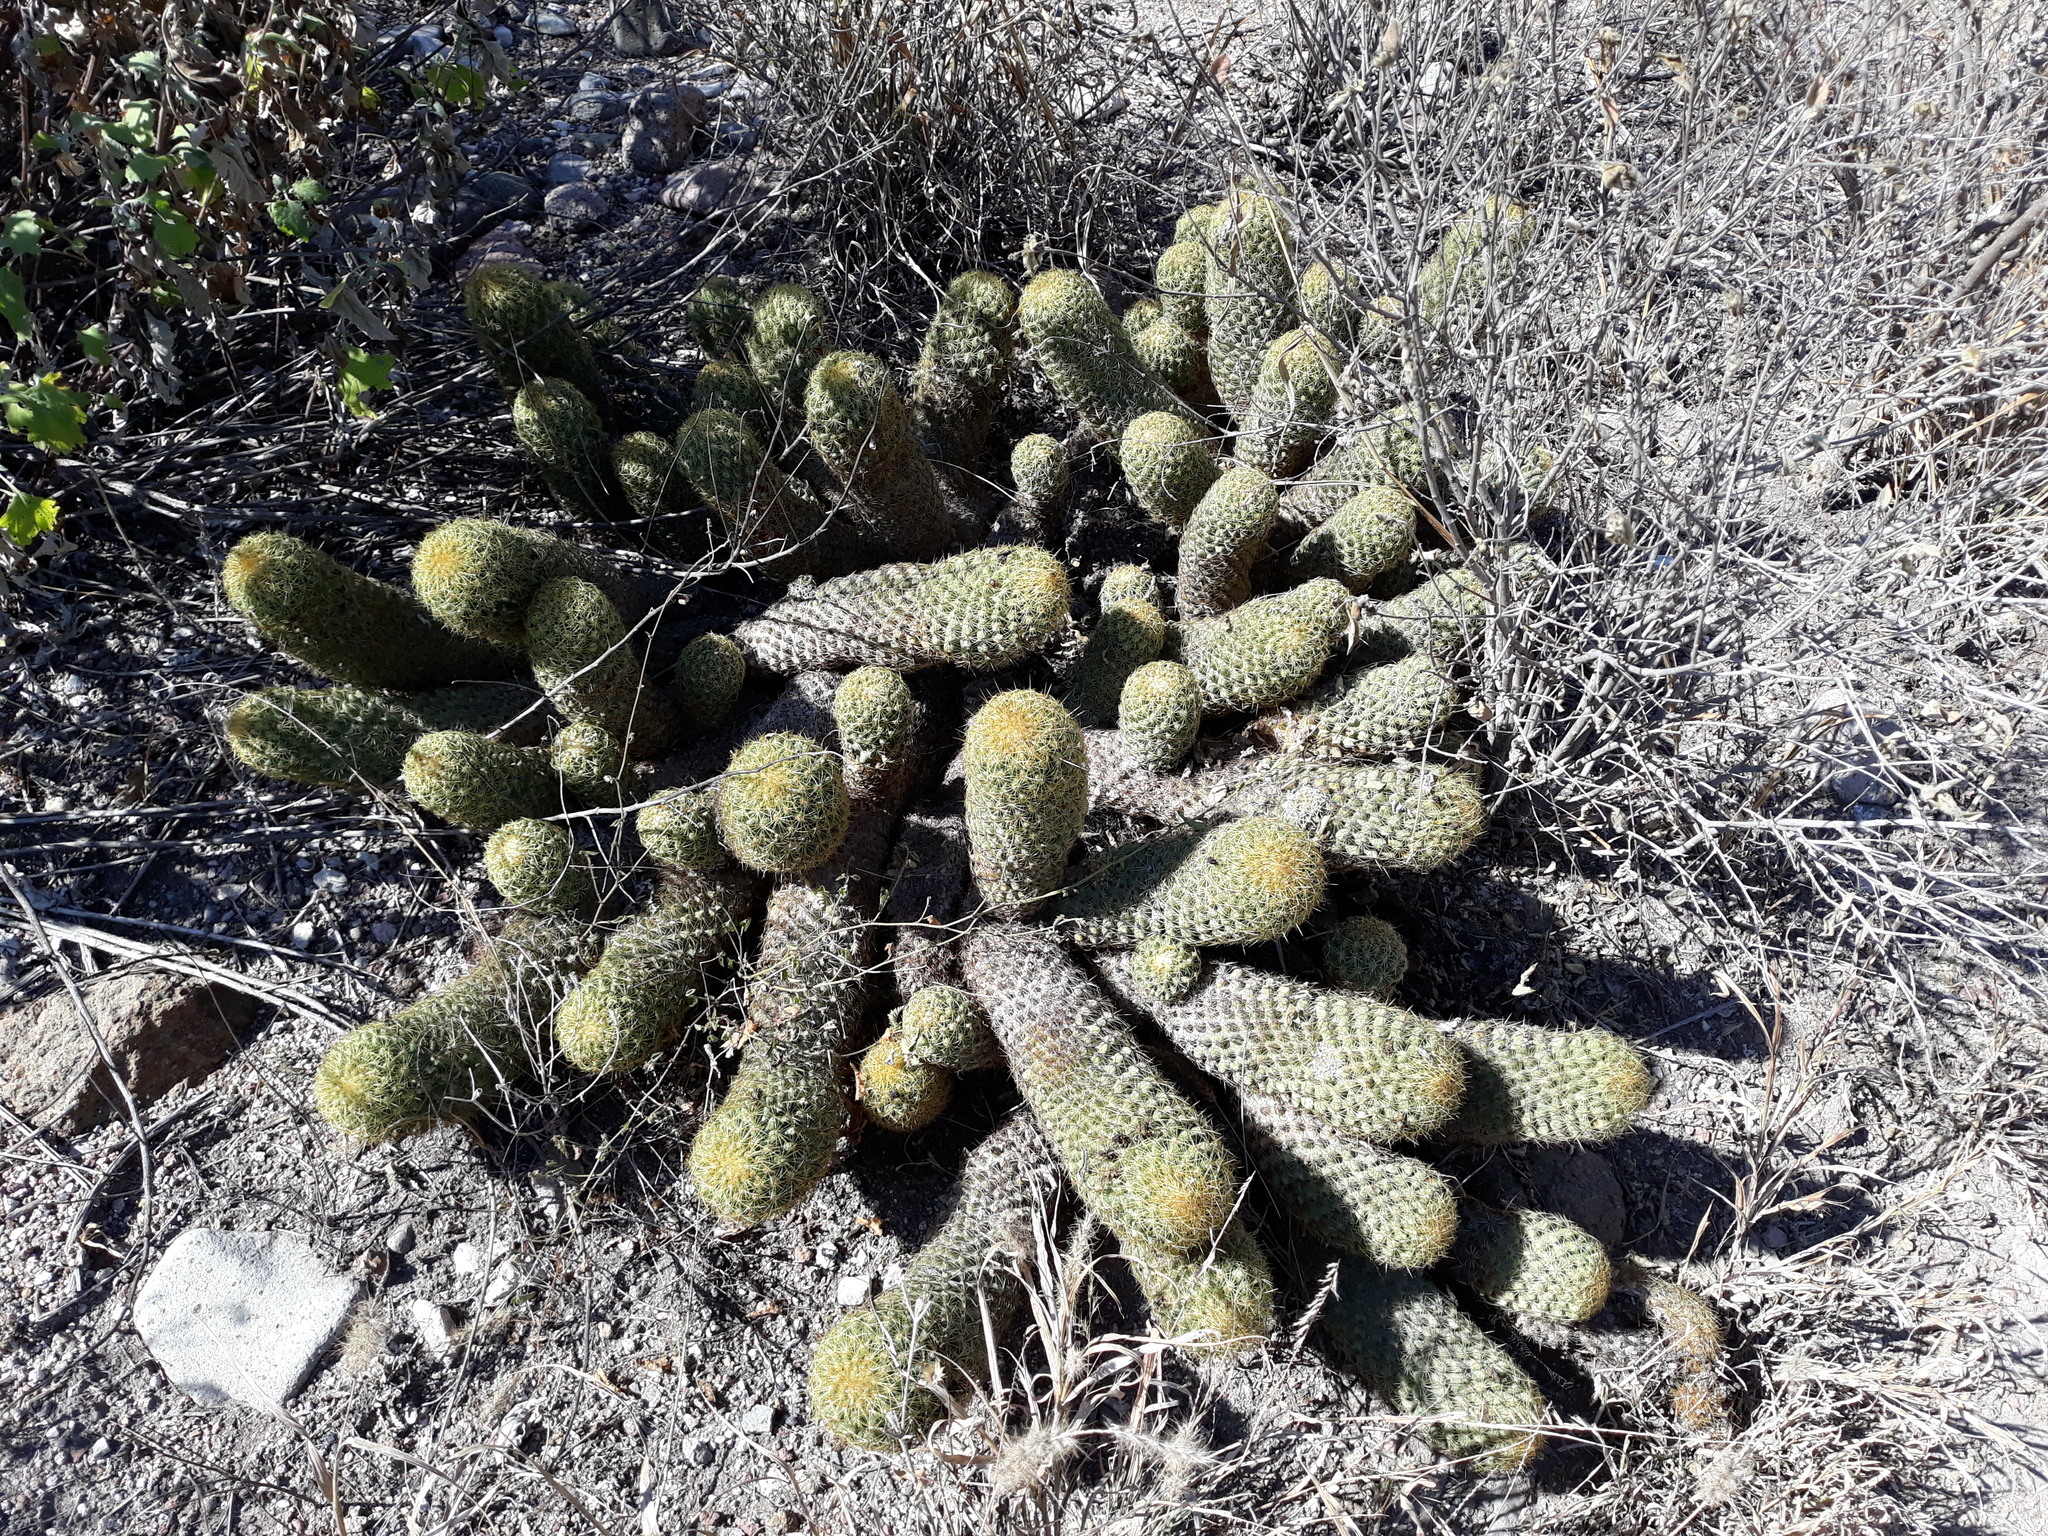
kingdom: Plantae
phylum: Tracheophyta
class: Magnoliopsida
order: Caryophyllales
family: Cactaceae
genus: Coryphantha
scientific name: Coryphantha erecta
